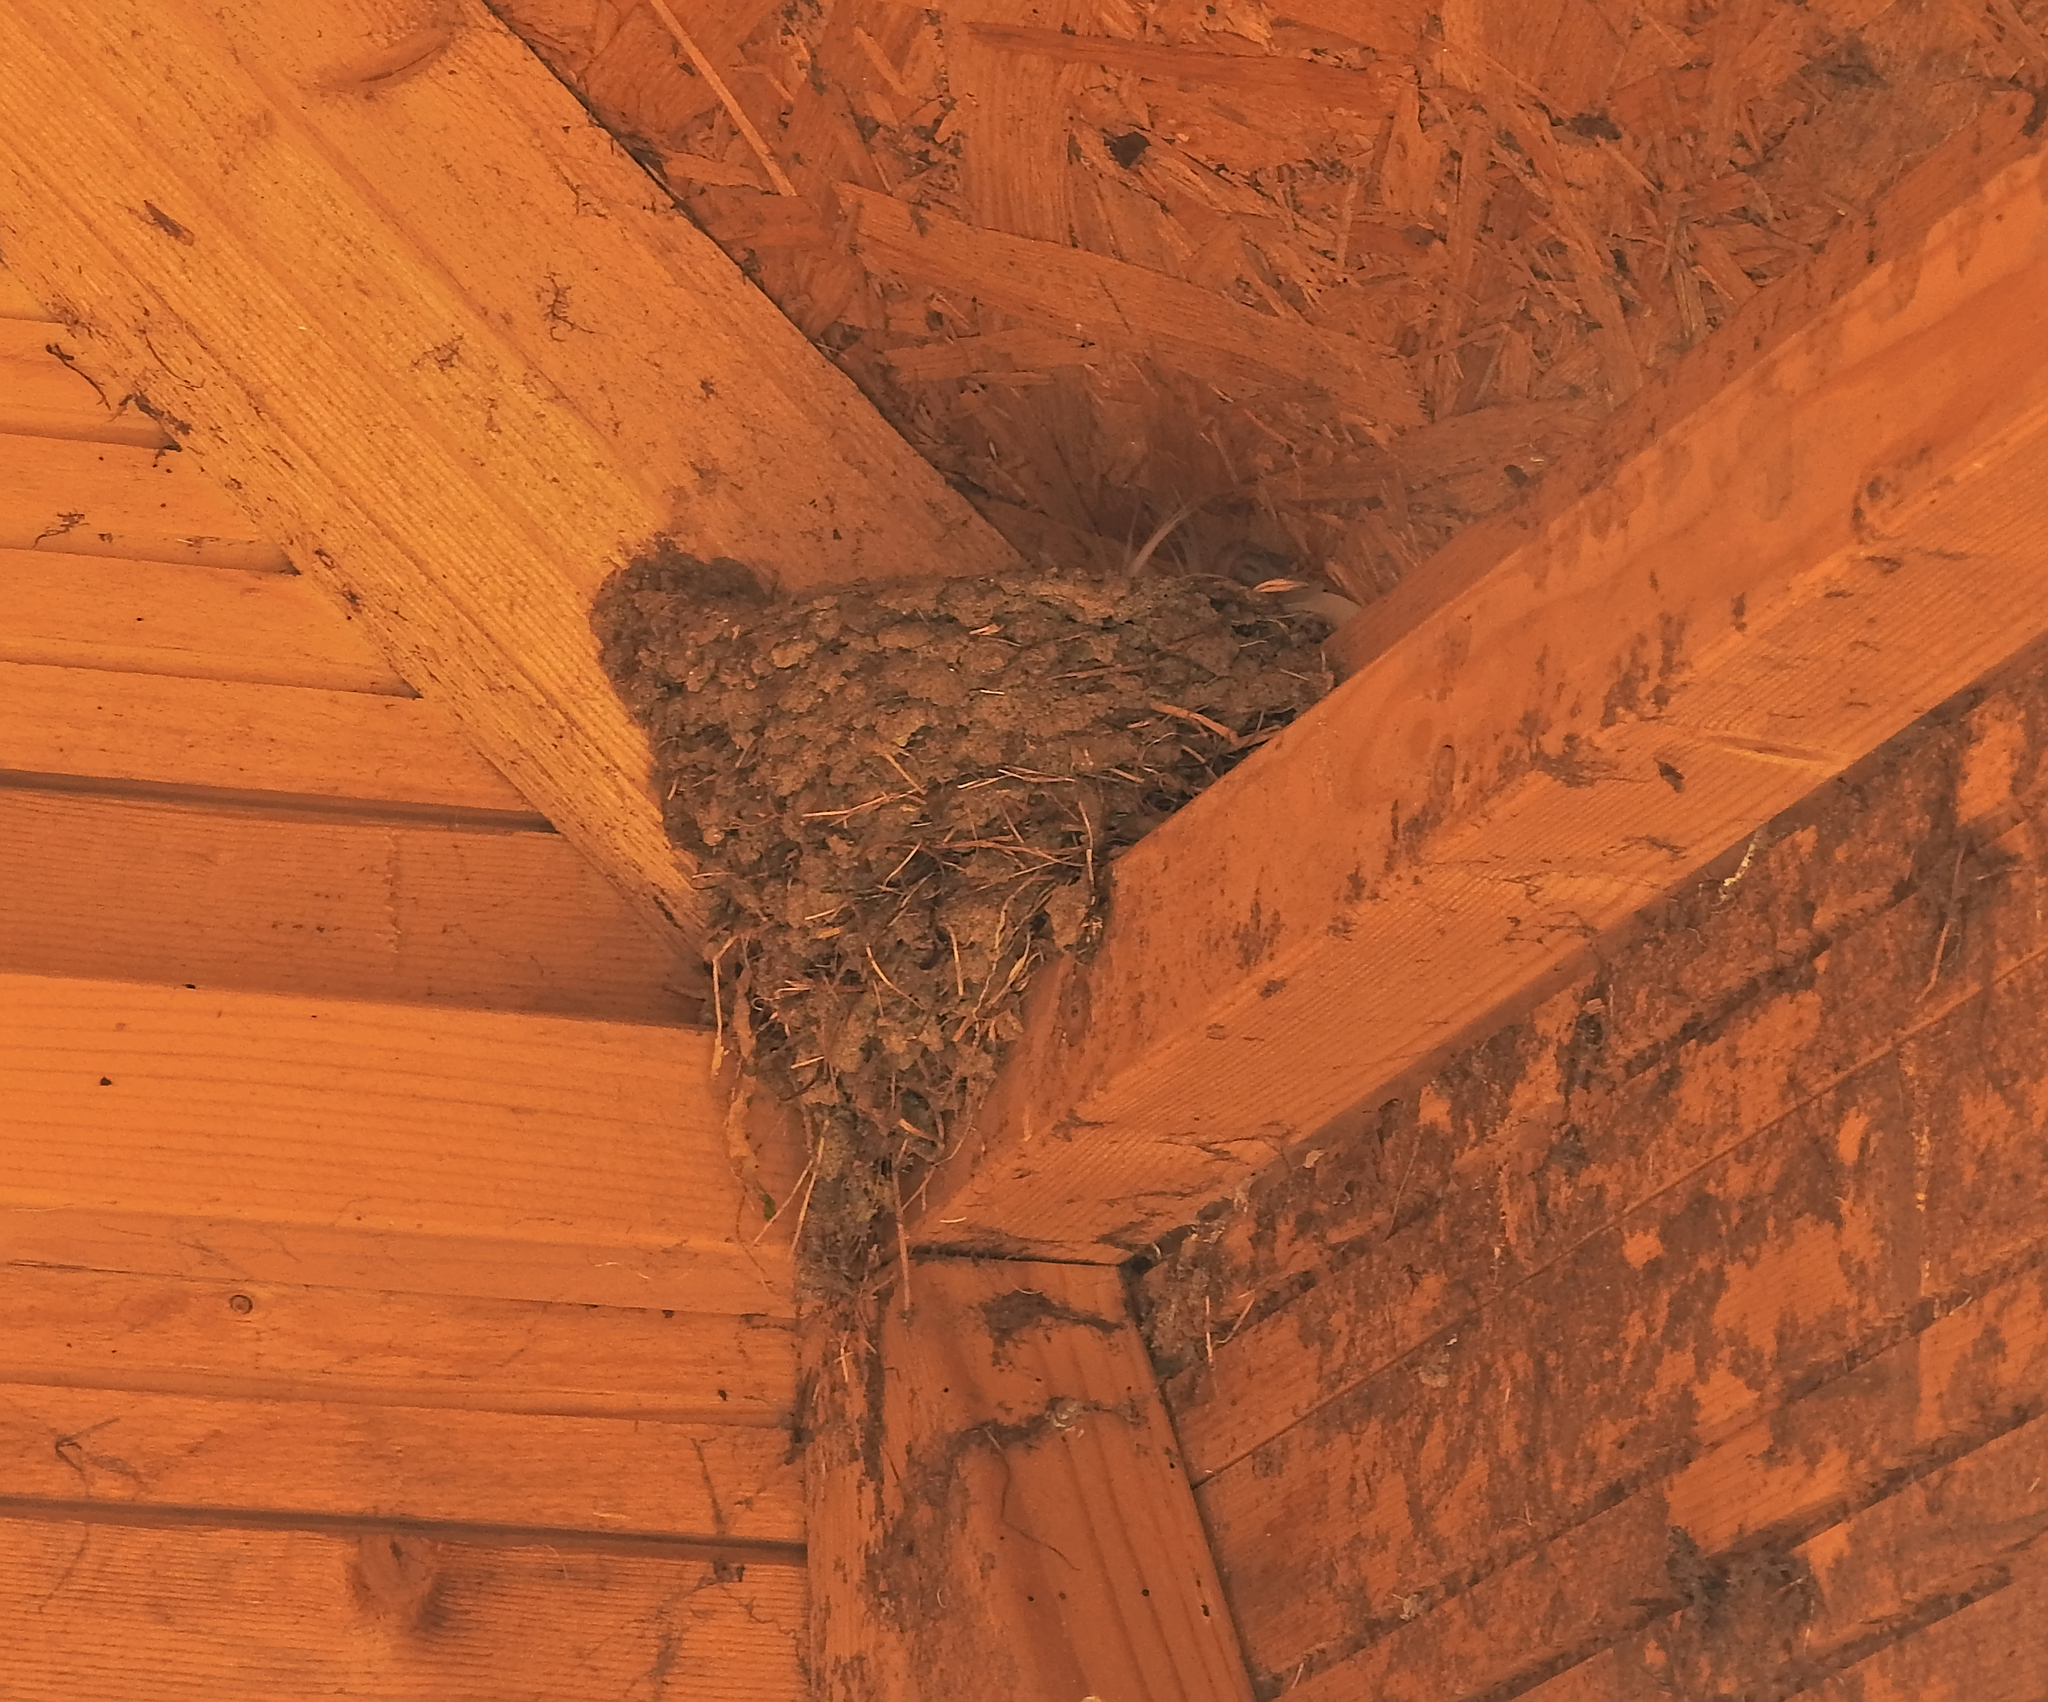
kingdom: Animalia
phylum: Chordata
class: Aves
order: Passeriformes
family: Hirundinidae
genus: Hirundo
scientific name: Hirundo rustica
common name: Barn swallow
